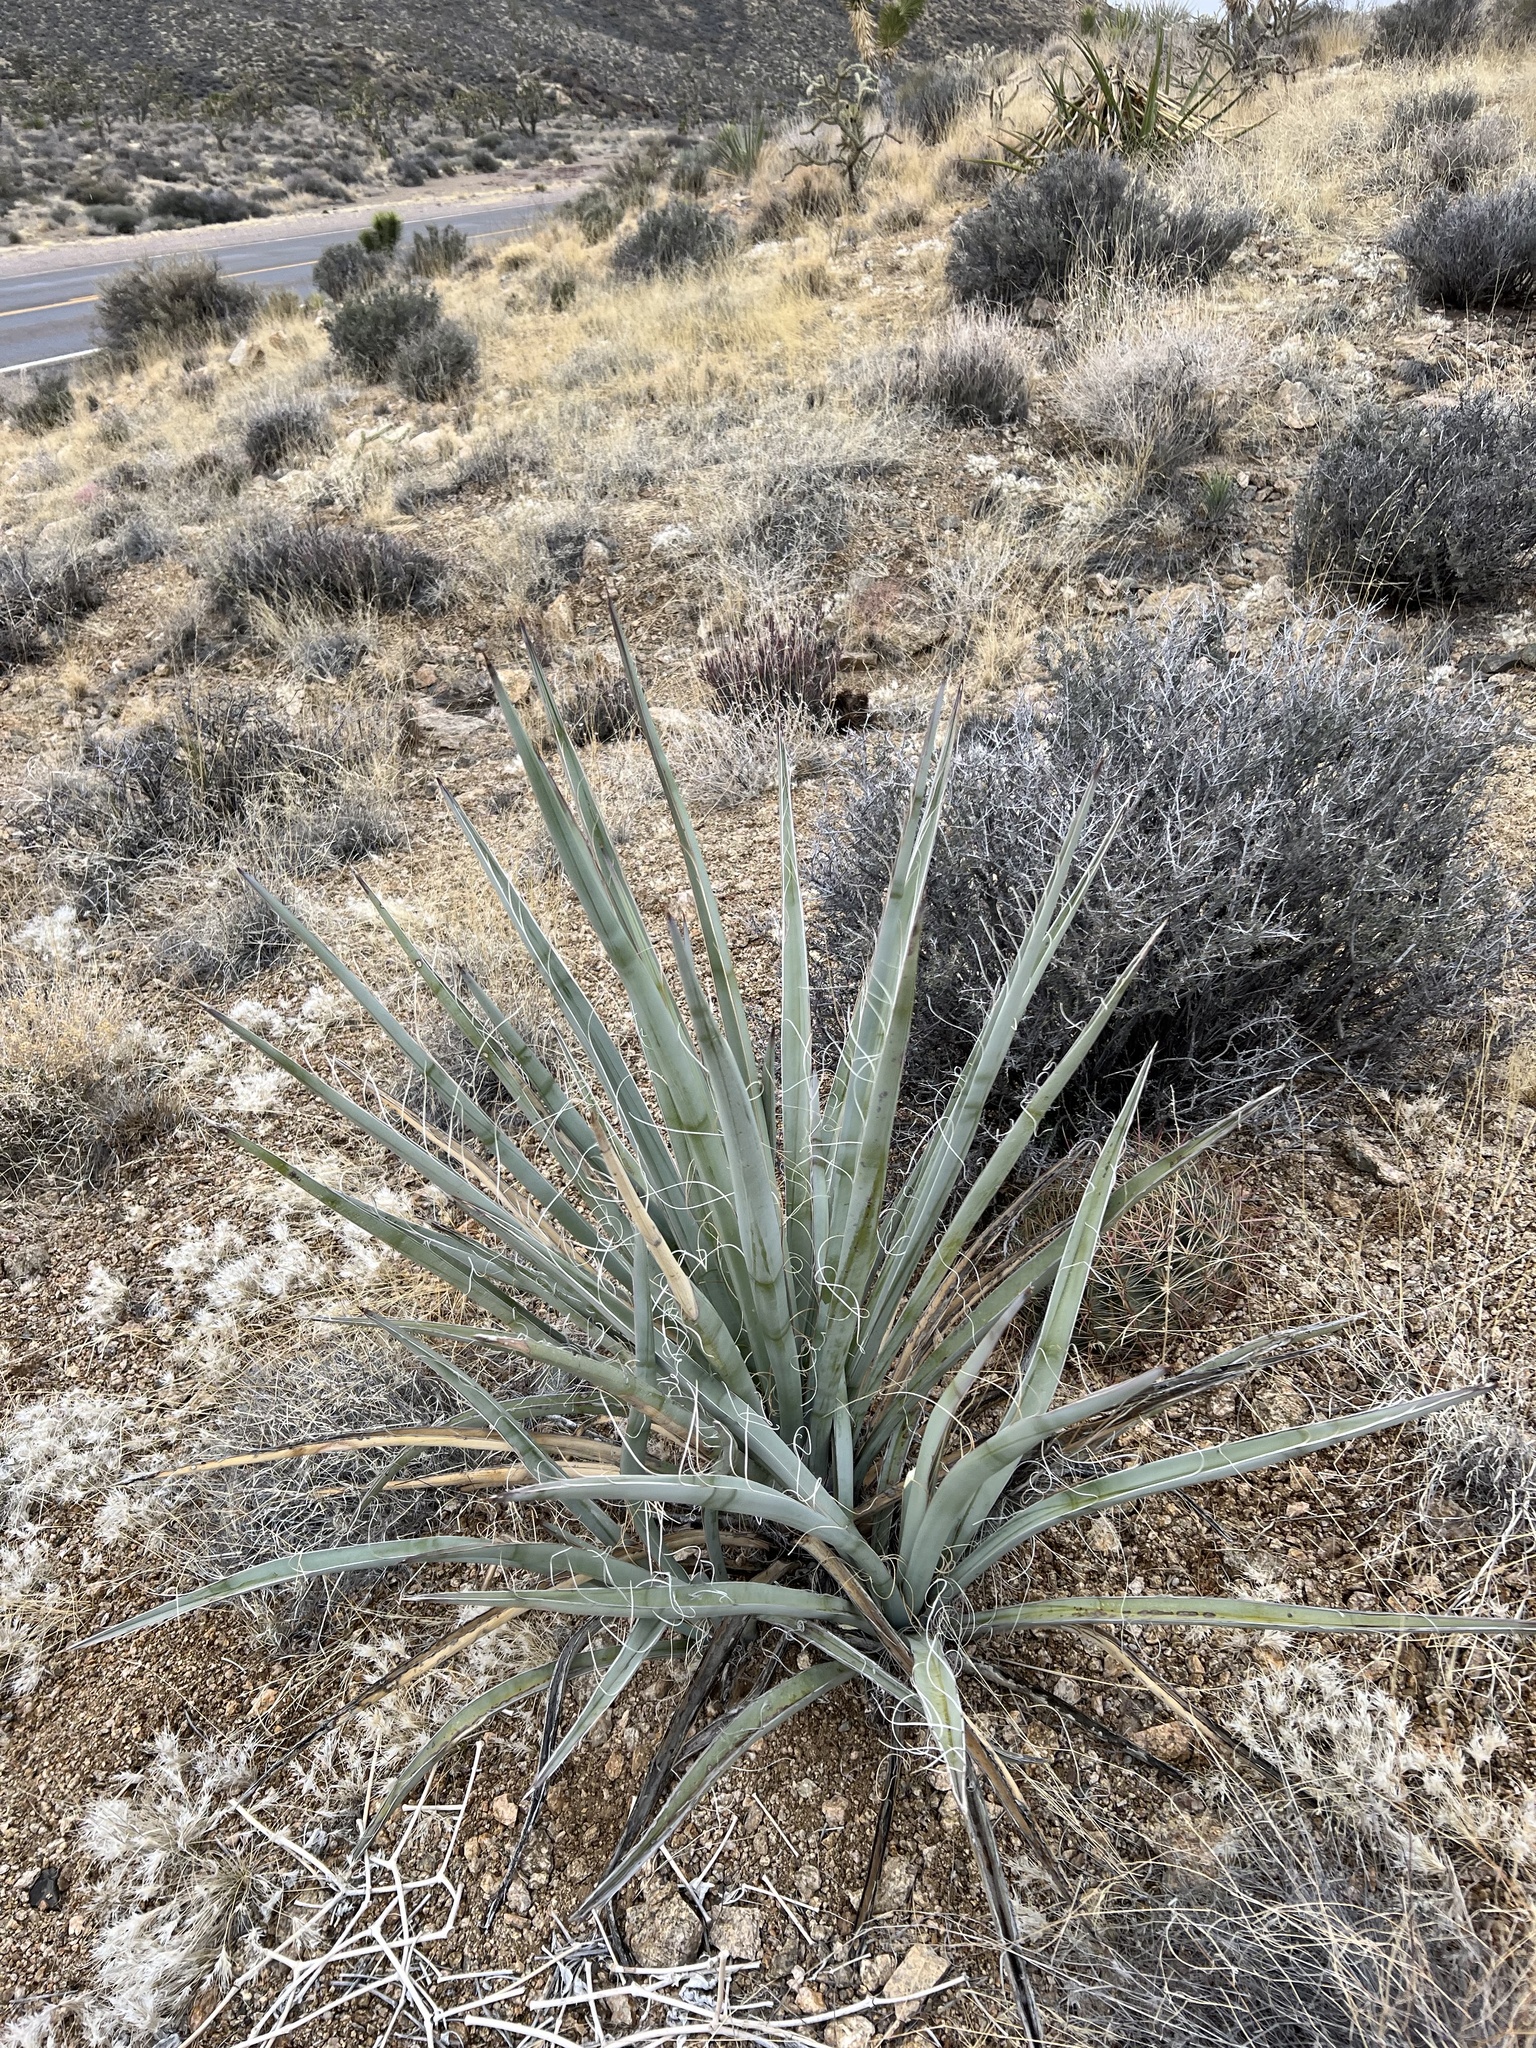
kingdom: Plantae
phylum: Tracheophyta
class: Liliopsida
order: Asparagales
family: Asparagaceae
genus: Yucca
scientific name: Yucca baccata
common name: Banana yucca
